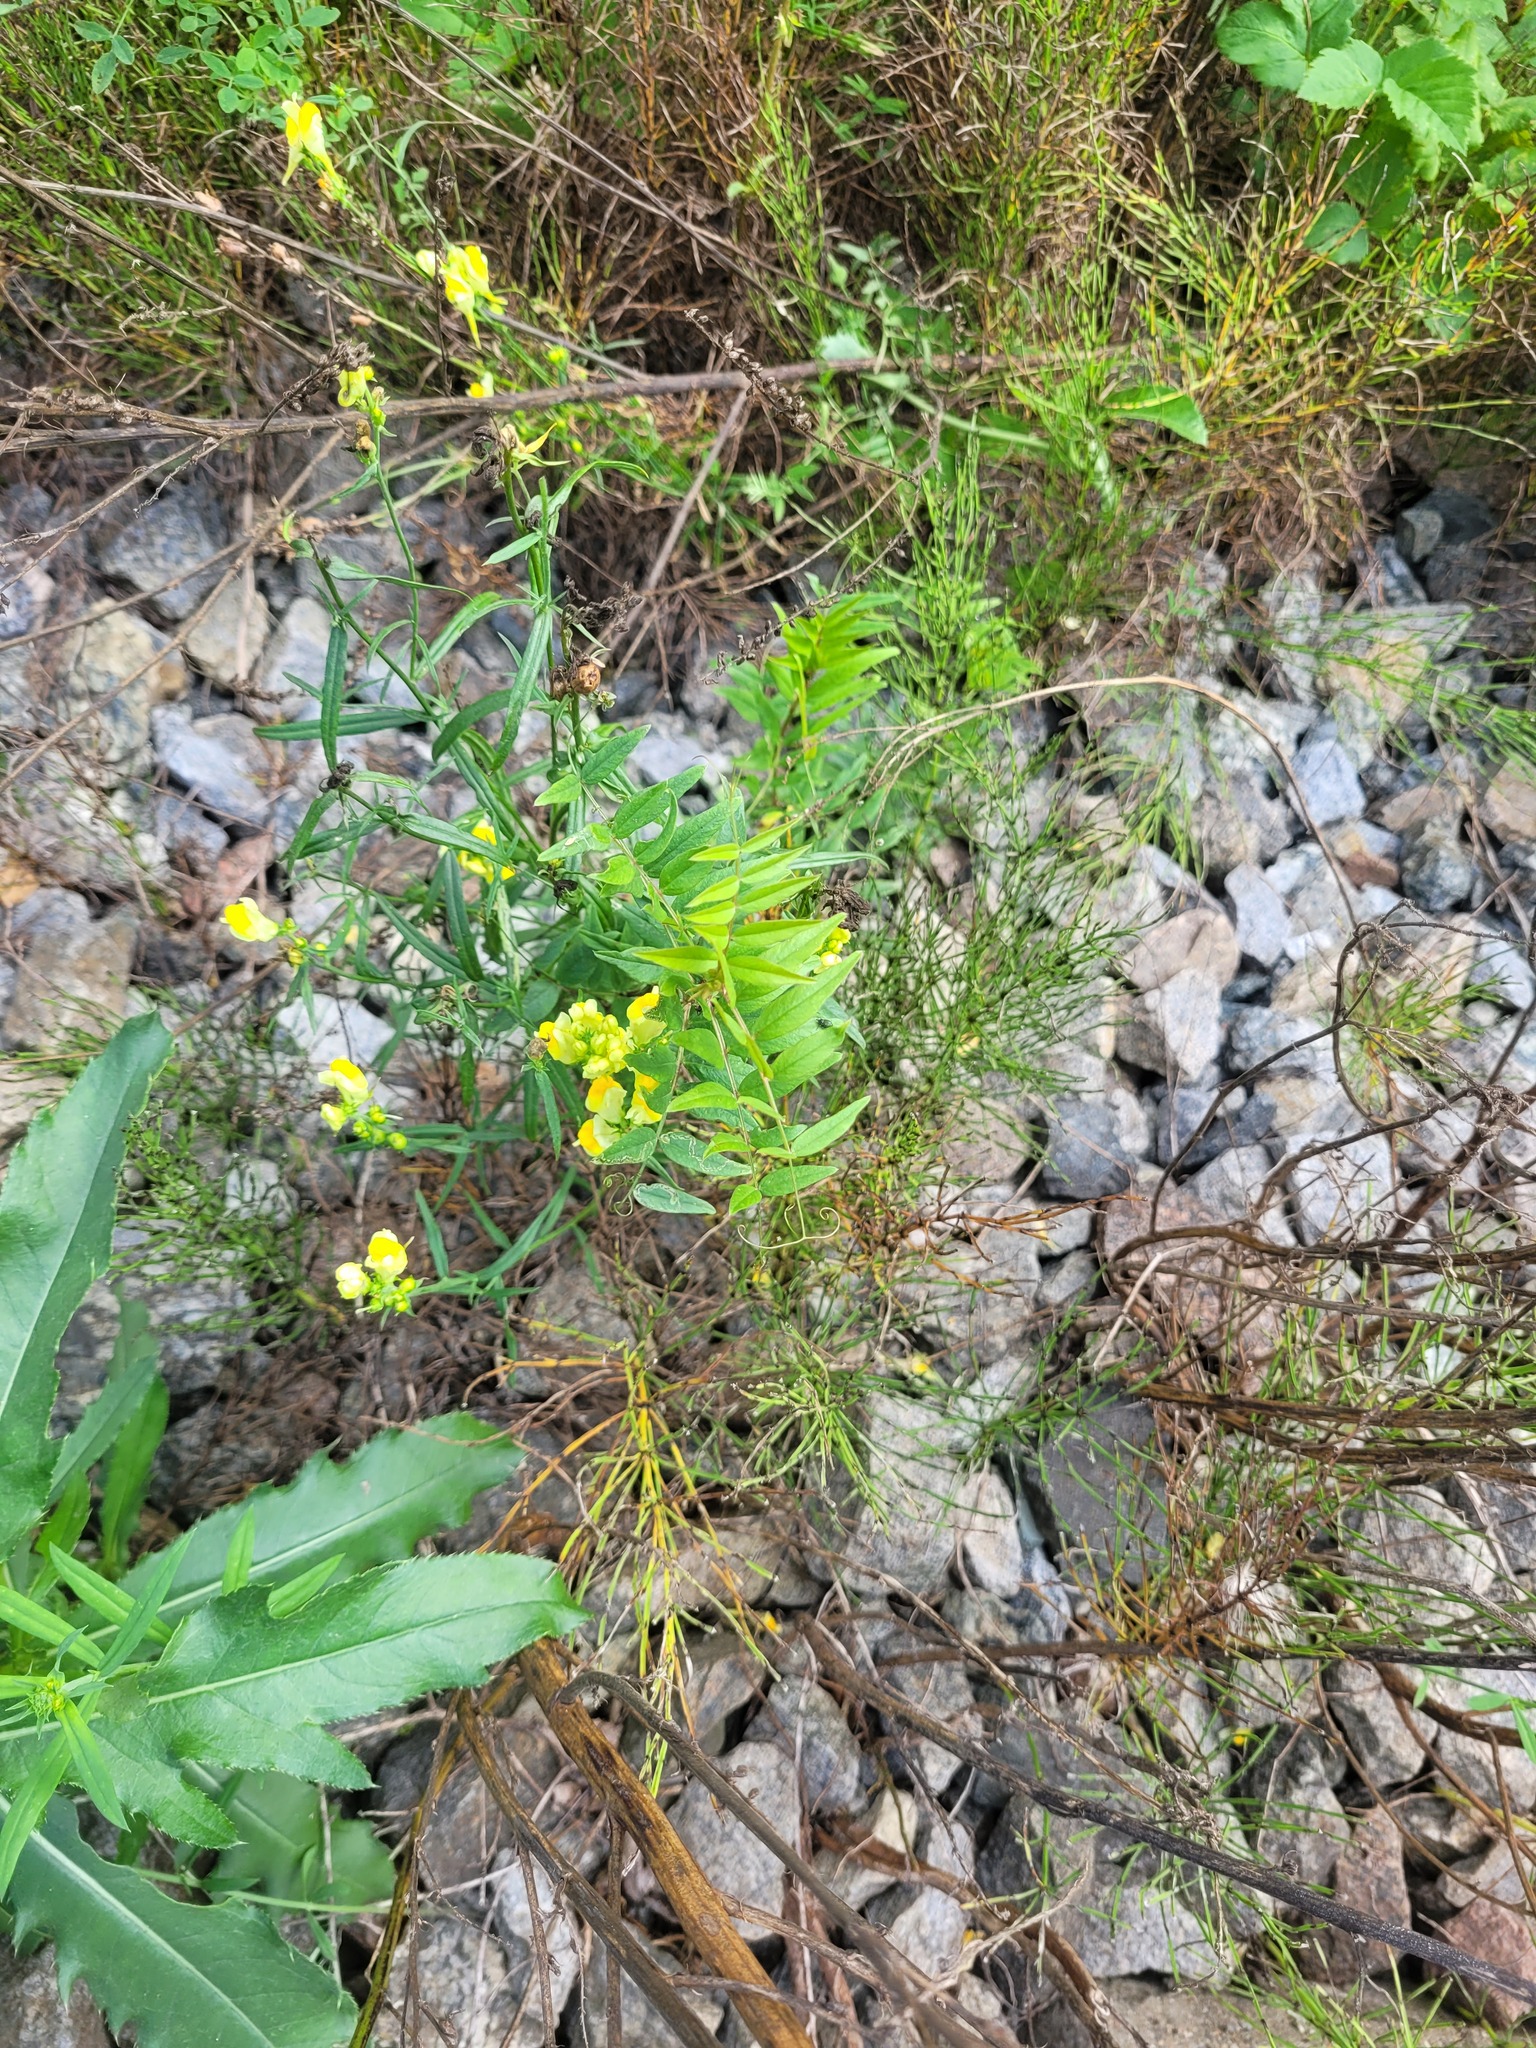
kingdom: Plantae
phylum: Tracheophyta
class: Magnoliopsida
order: Fabales
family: Fabaceae
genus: Vicia
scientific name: Vicia sepium
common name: Bush vetch
